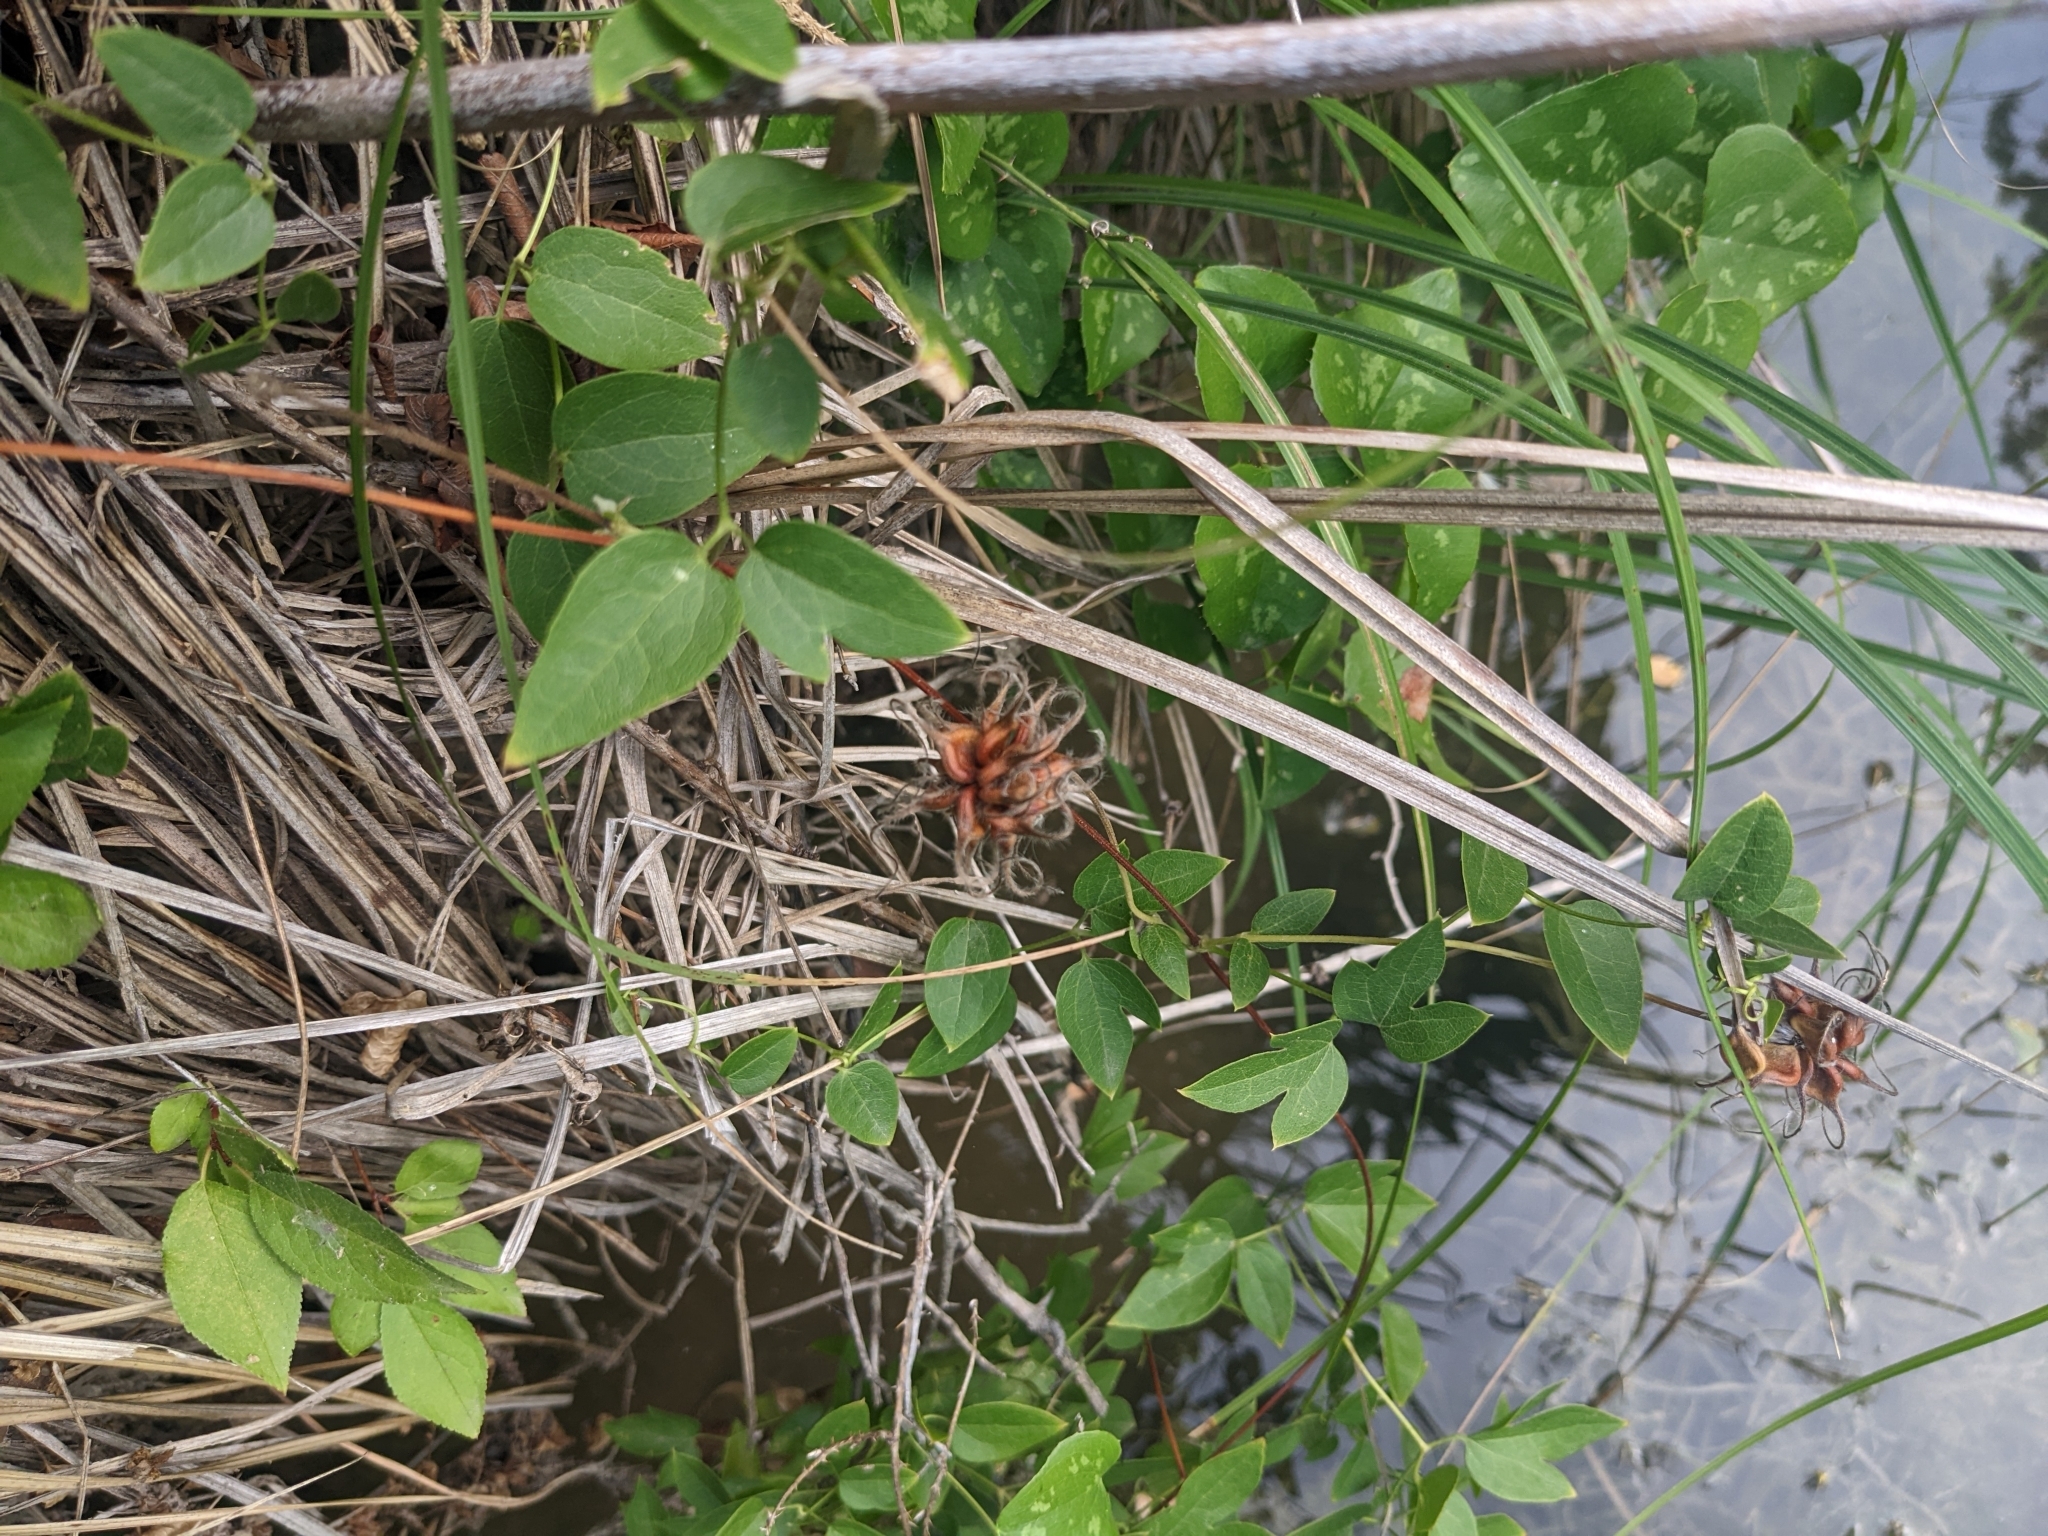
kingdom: Plantae
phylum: Tracheophyta
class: Magnoliopsida
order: Ranunculales
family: Ranunculaceae
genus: Clematis
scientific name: Clematis pitcheri
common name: Bellflower clematis
